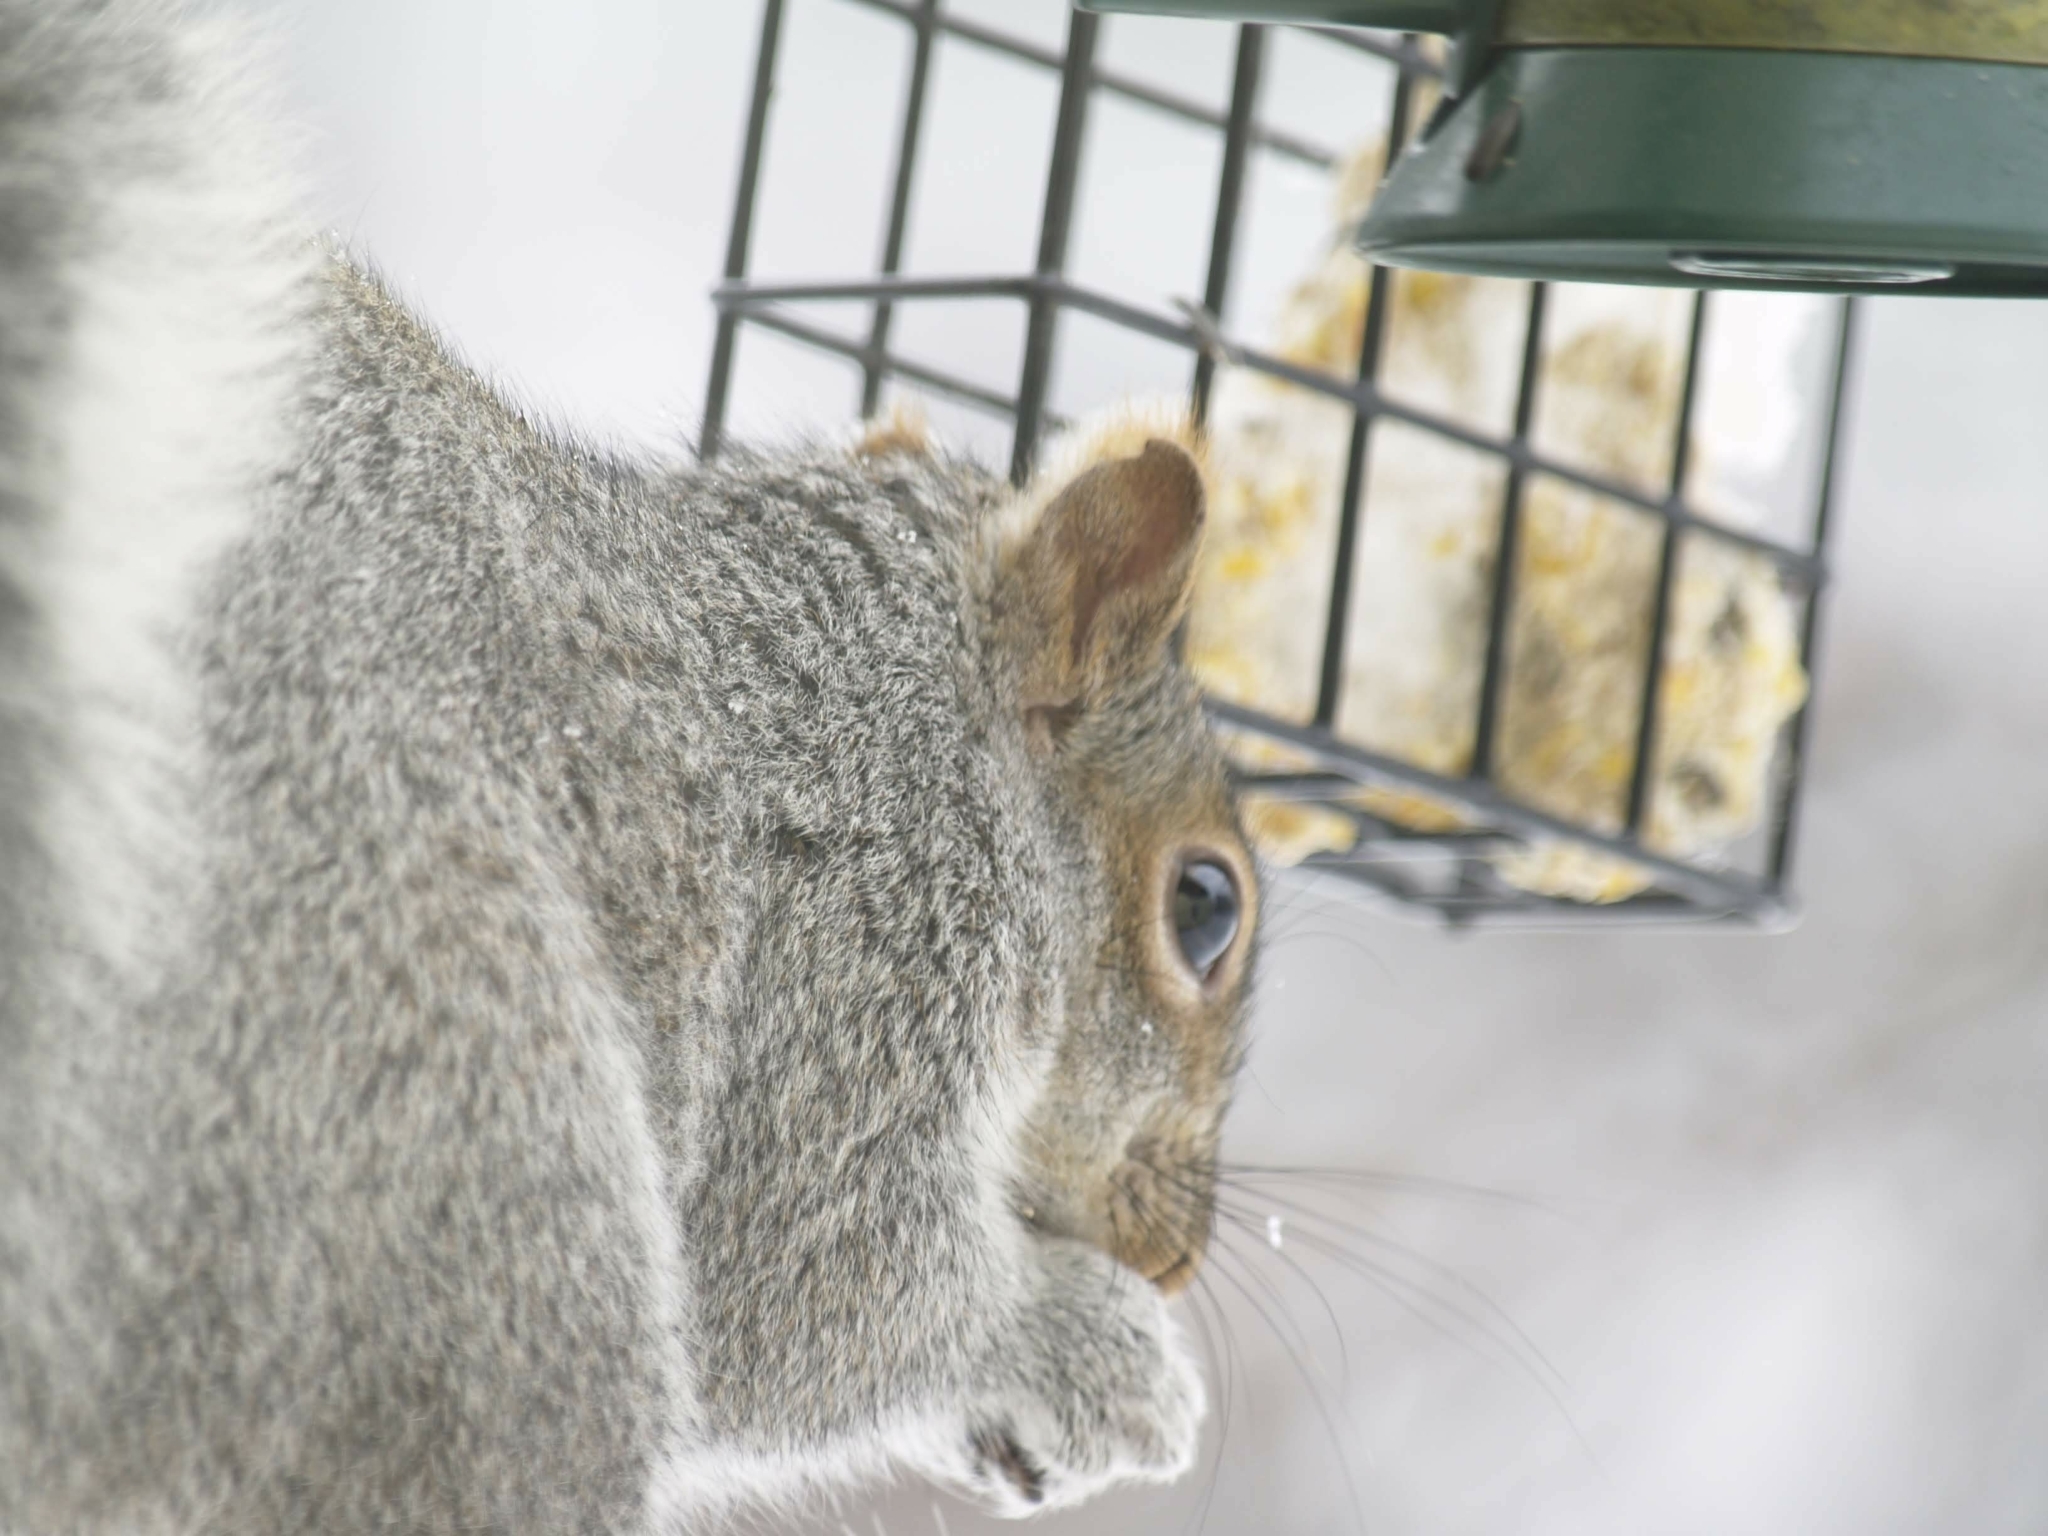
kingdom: Animalia
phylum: Chordata
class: Mammalia
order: Rodentia
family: Sciuridae
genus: Sciurus
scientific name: Sciurus carolinensis
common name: Eastern gray squirrel
